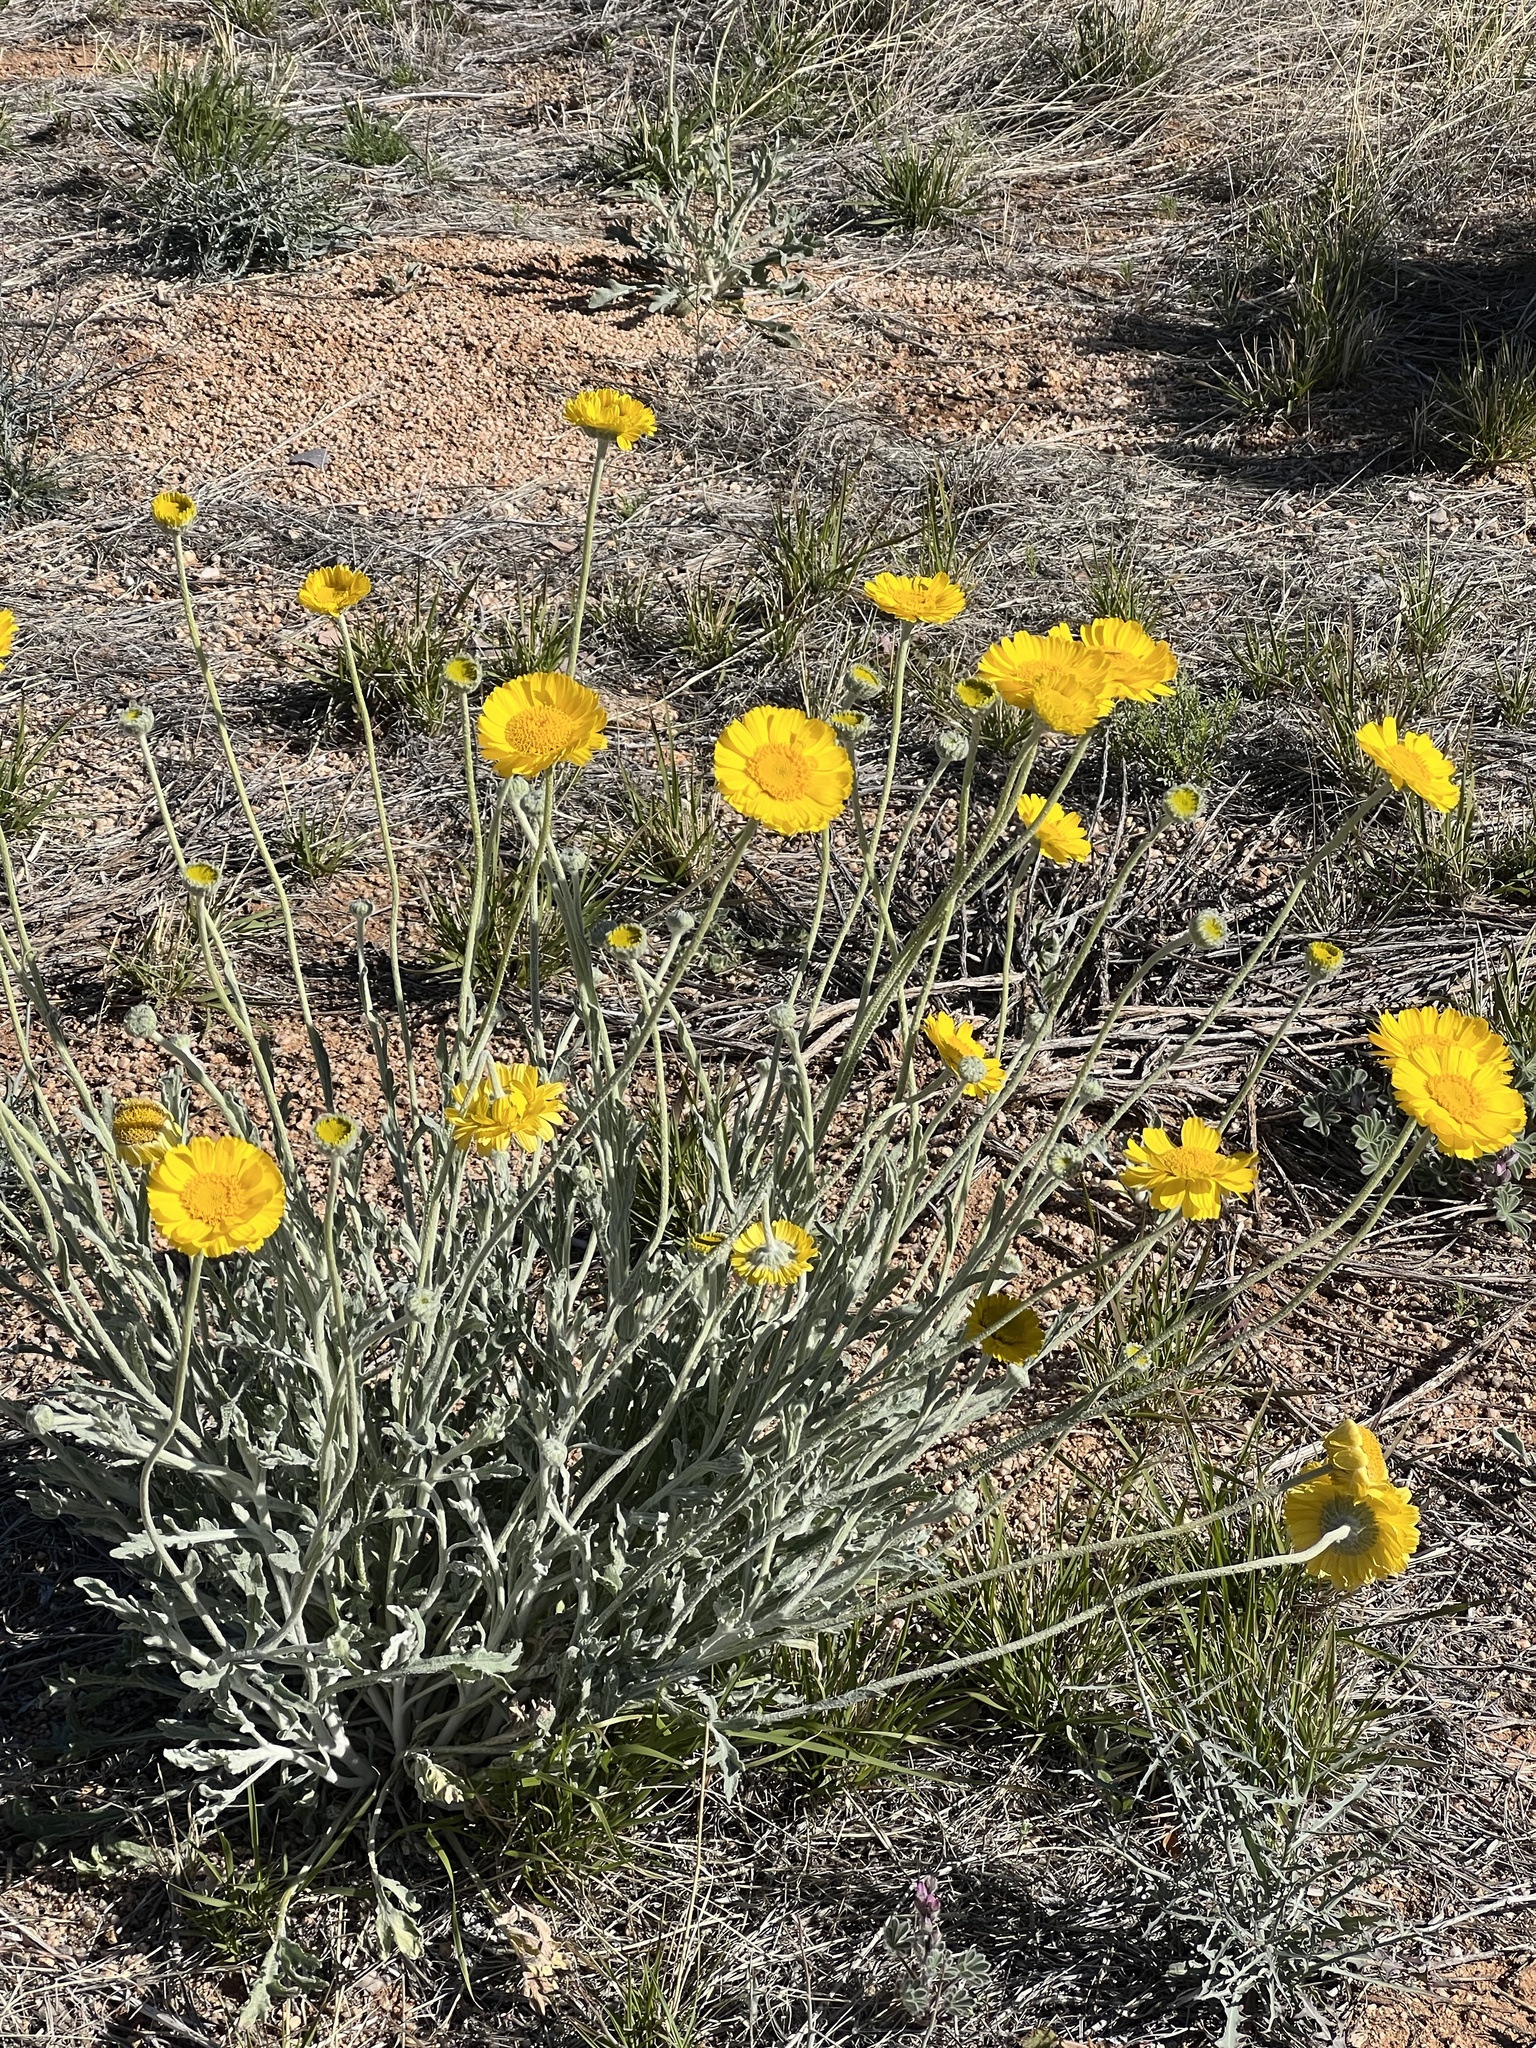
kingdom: Plantae
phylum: Tracheophyta
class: Magnoliopsida
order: Asterales
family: Asteraceae
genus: Baileya
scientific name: Baileya multiradiata
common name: Desert-marigold
